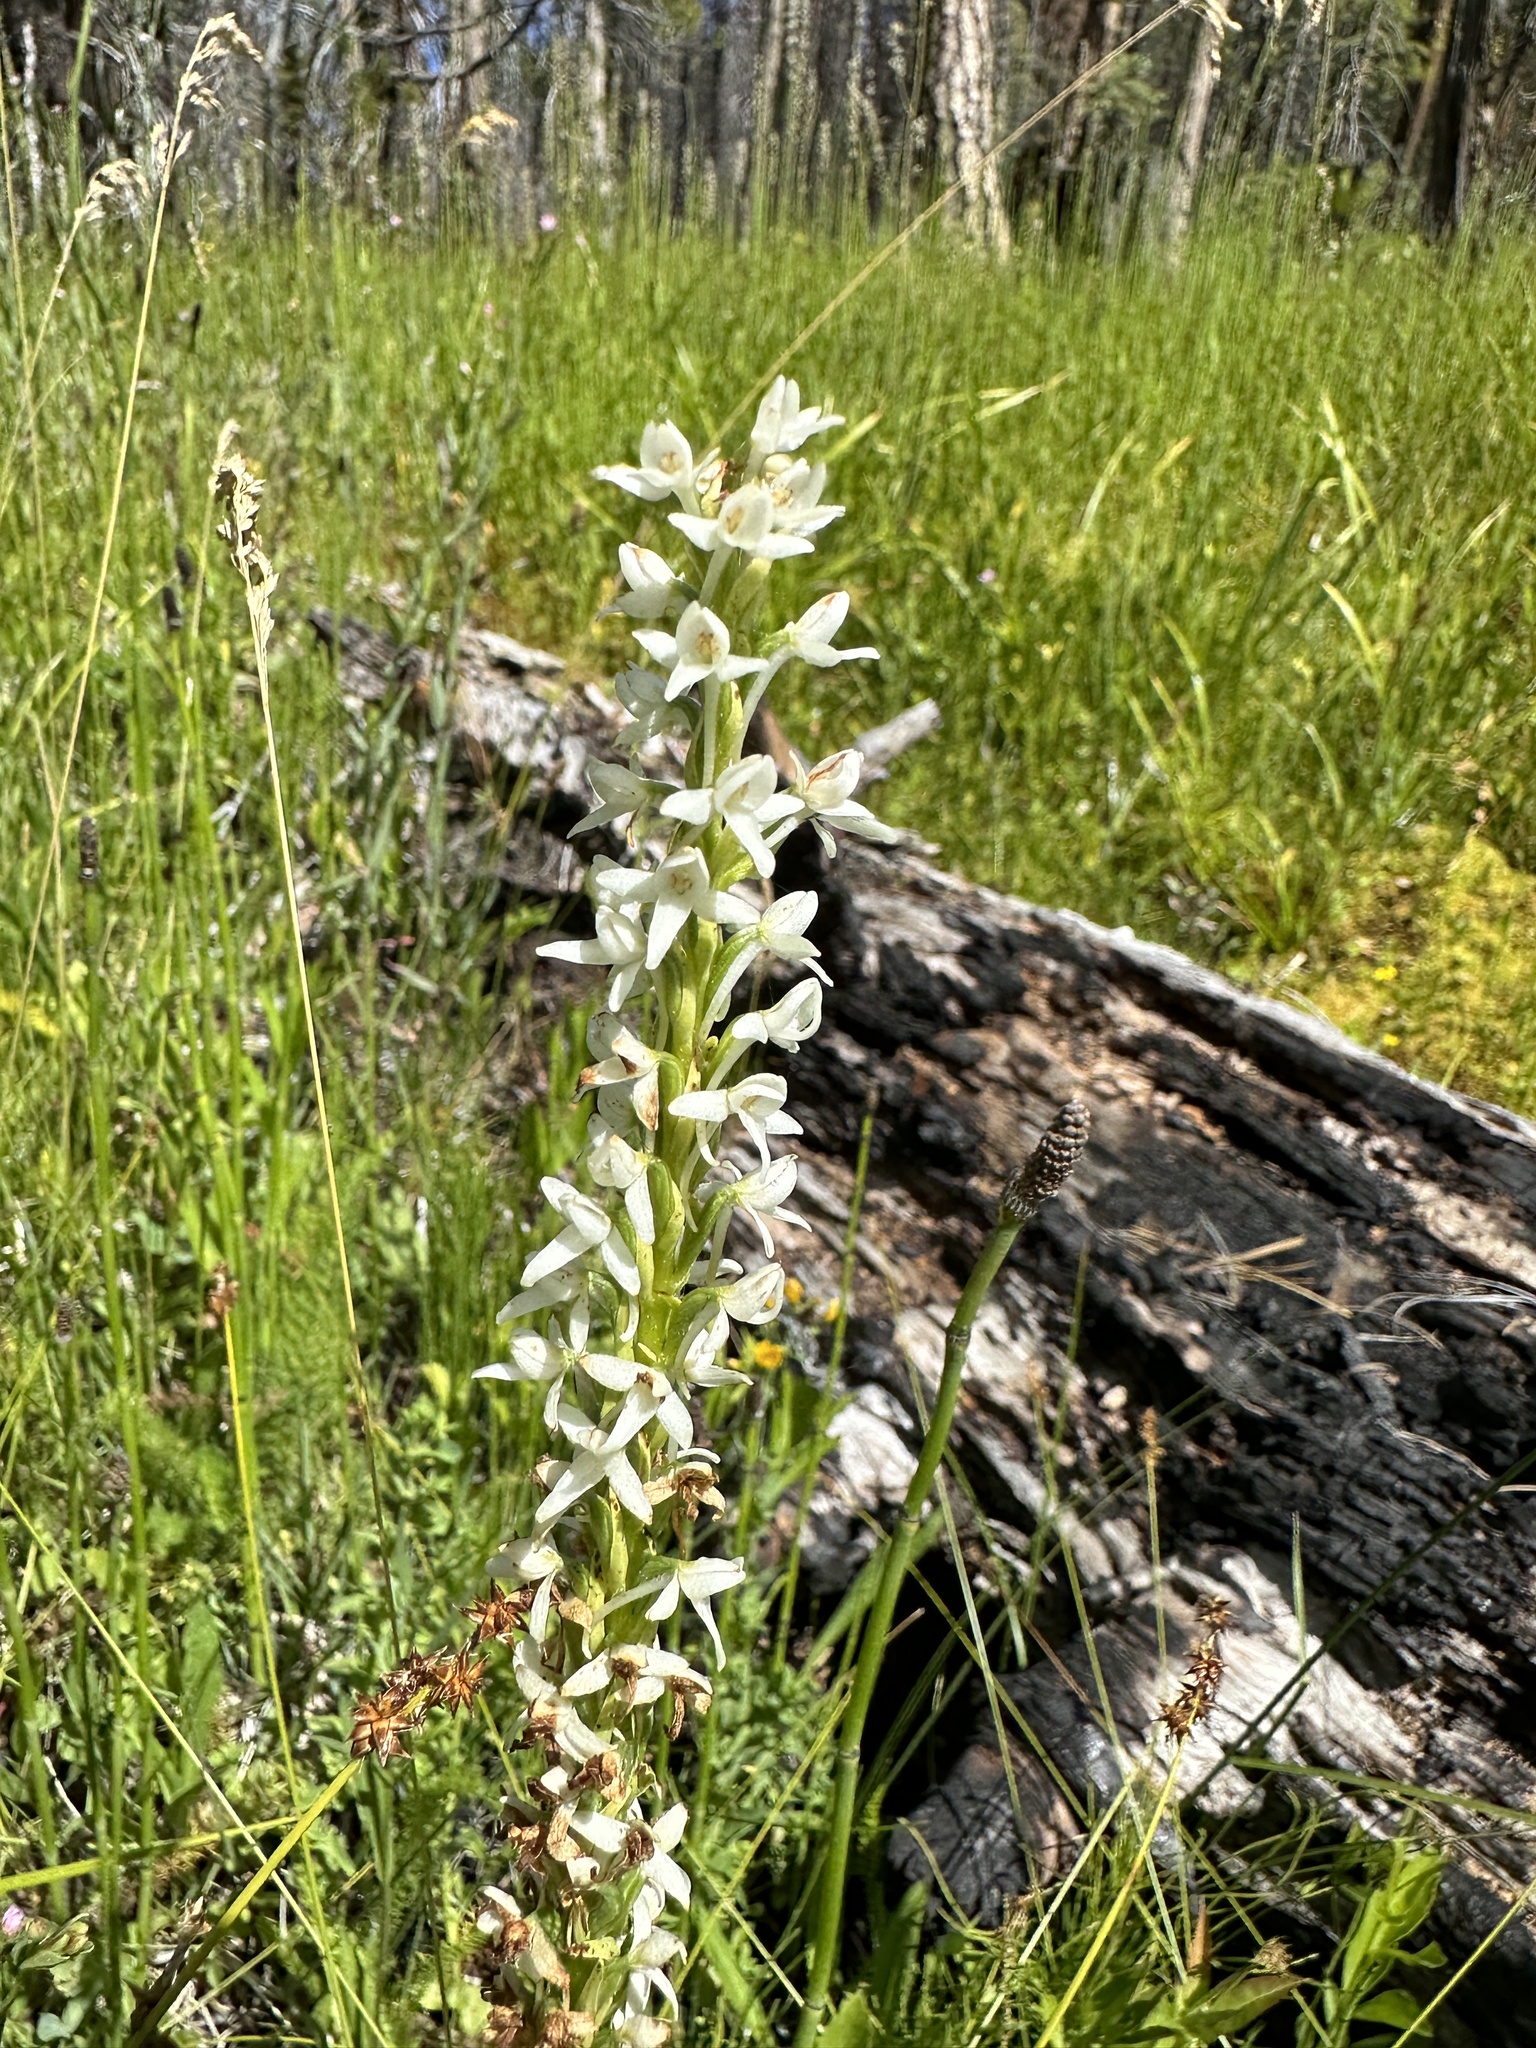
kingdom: Plantae
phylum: Tracheophyta
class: Liliopsida
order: Asparagales
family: Orchidaceae
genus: Platanthera
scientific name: Platanthera dilatata
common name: Bog candles
